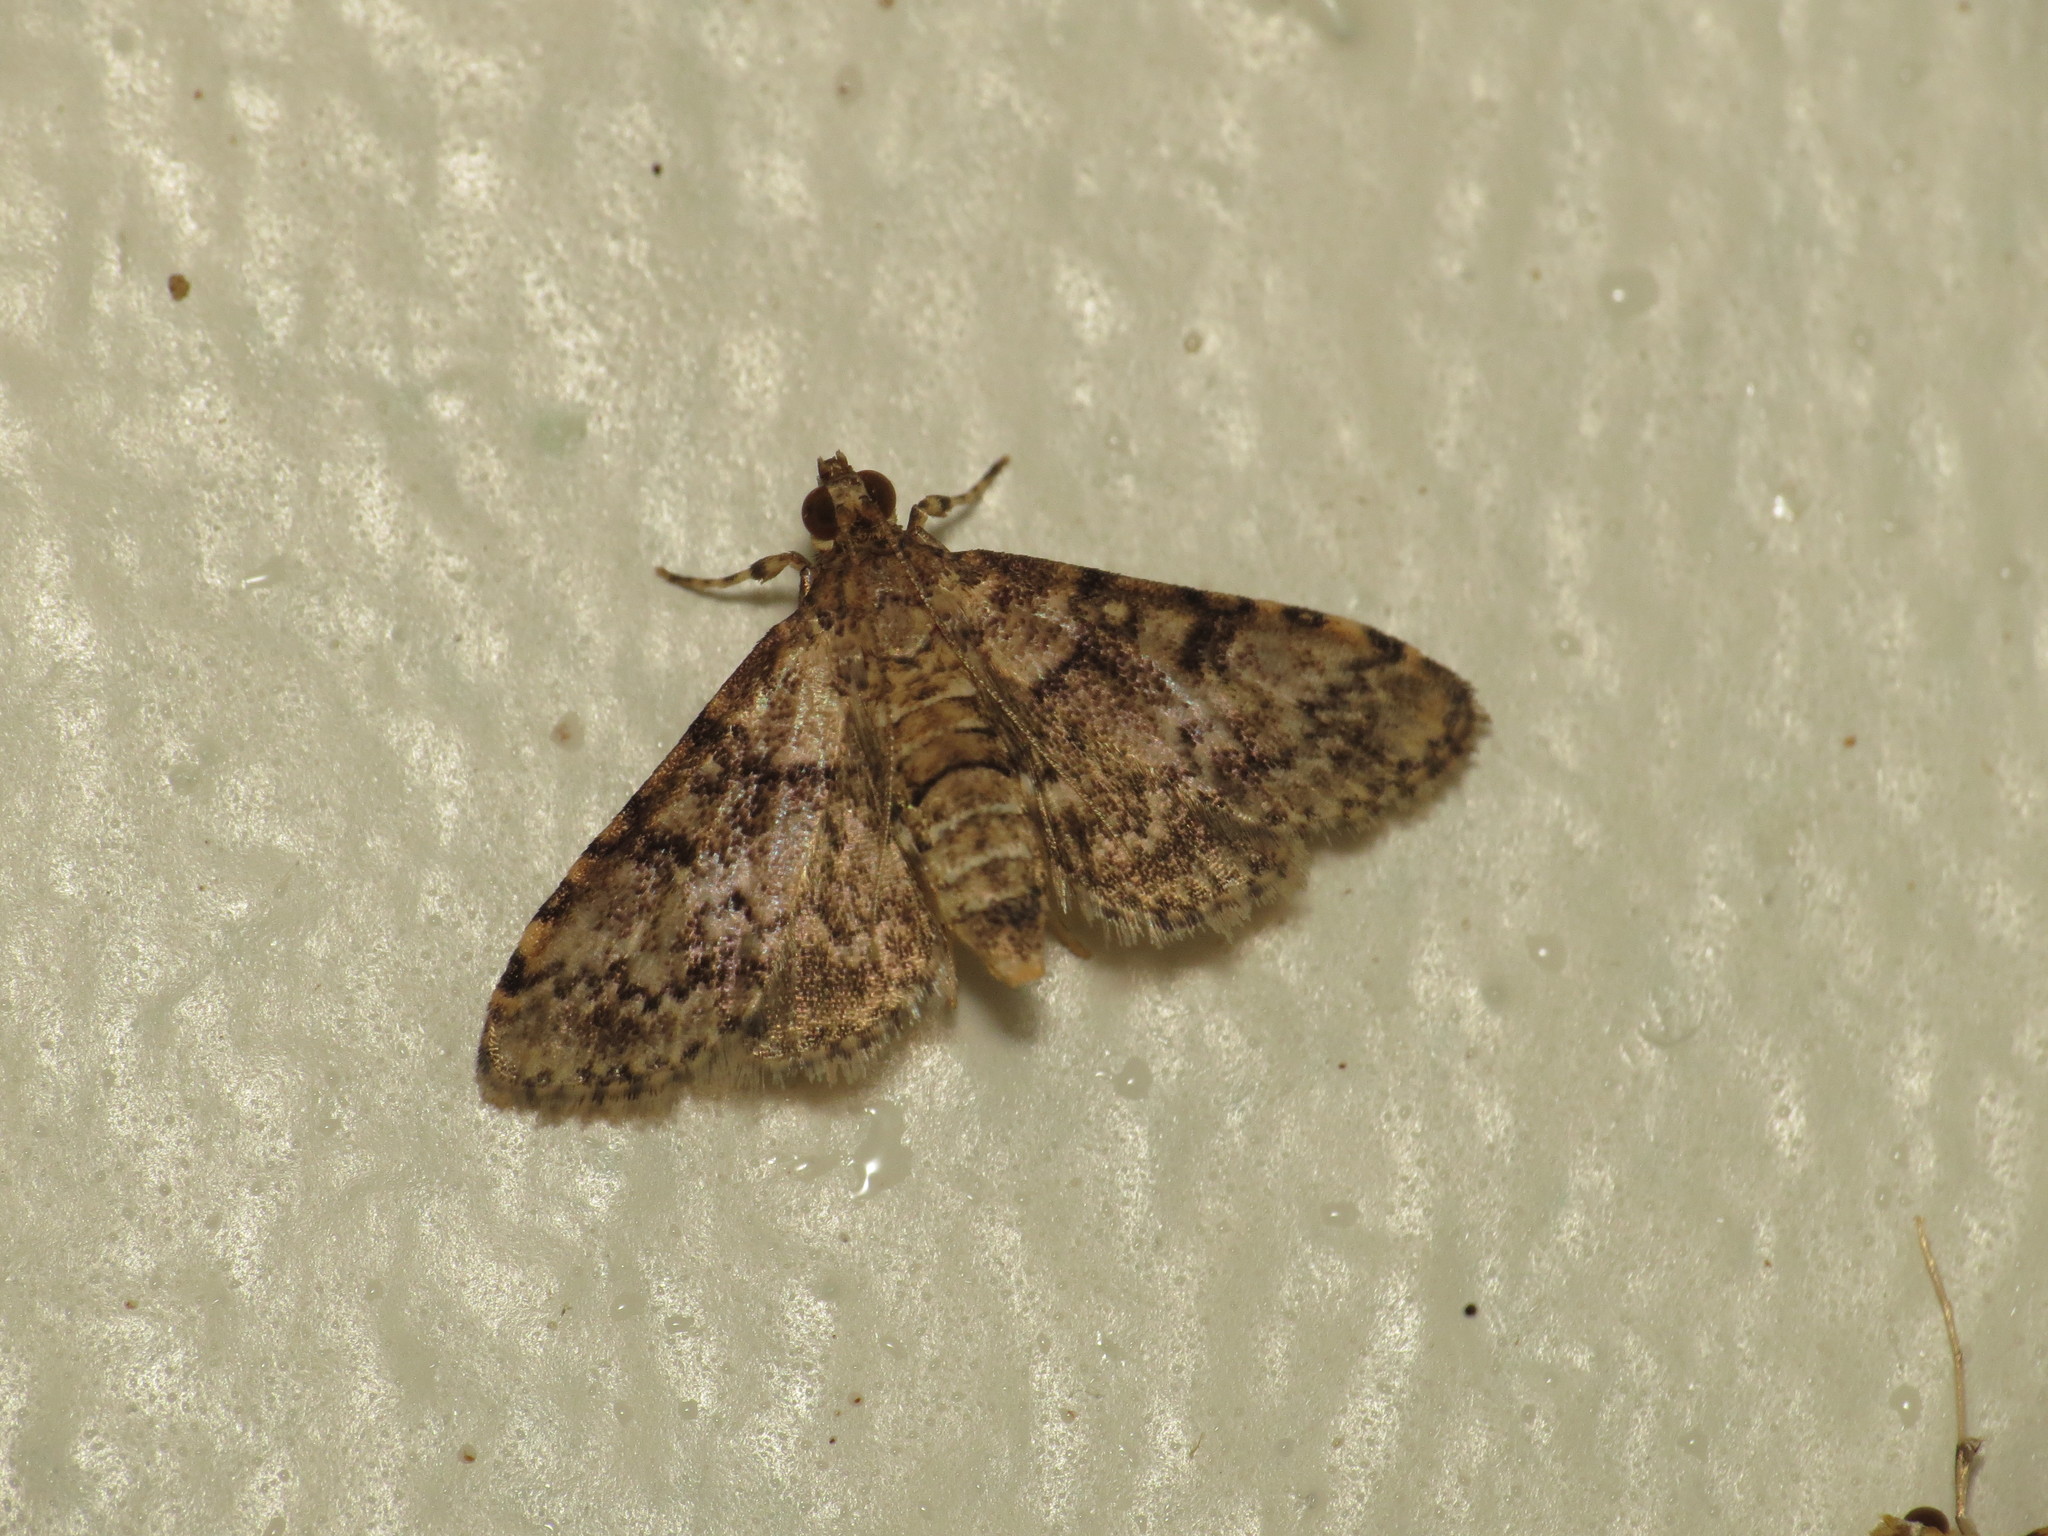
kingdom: Animalia
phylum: Arthropoda
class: Insecta
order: Lepidoptera
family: Crambidae
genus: Metasia
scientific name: Metasia spilocrossa
